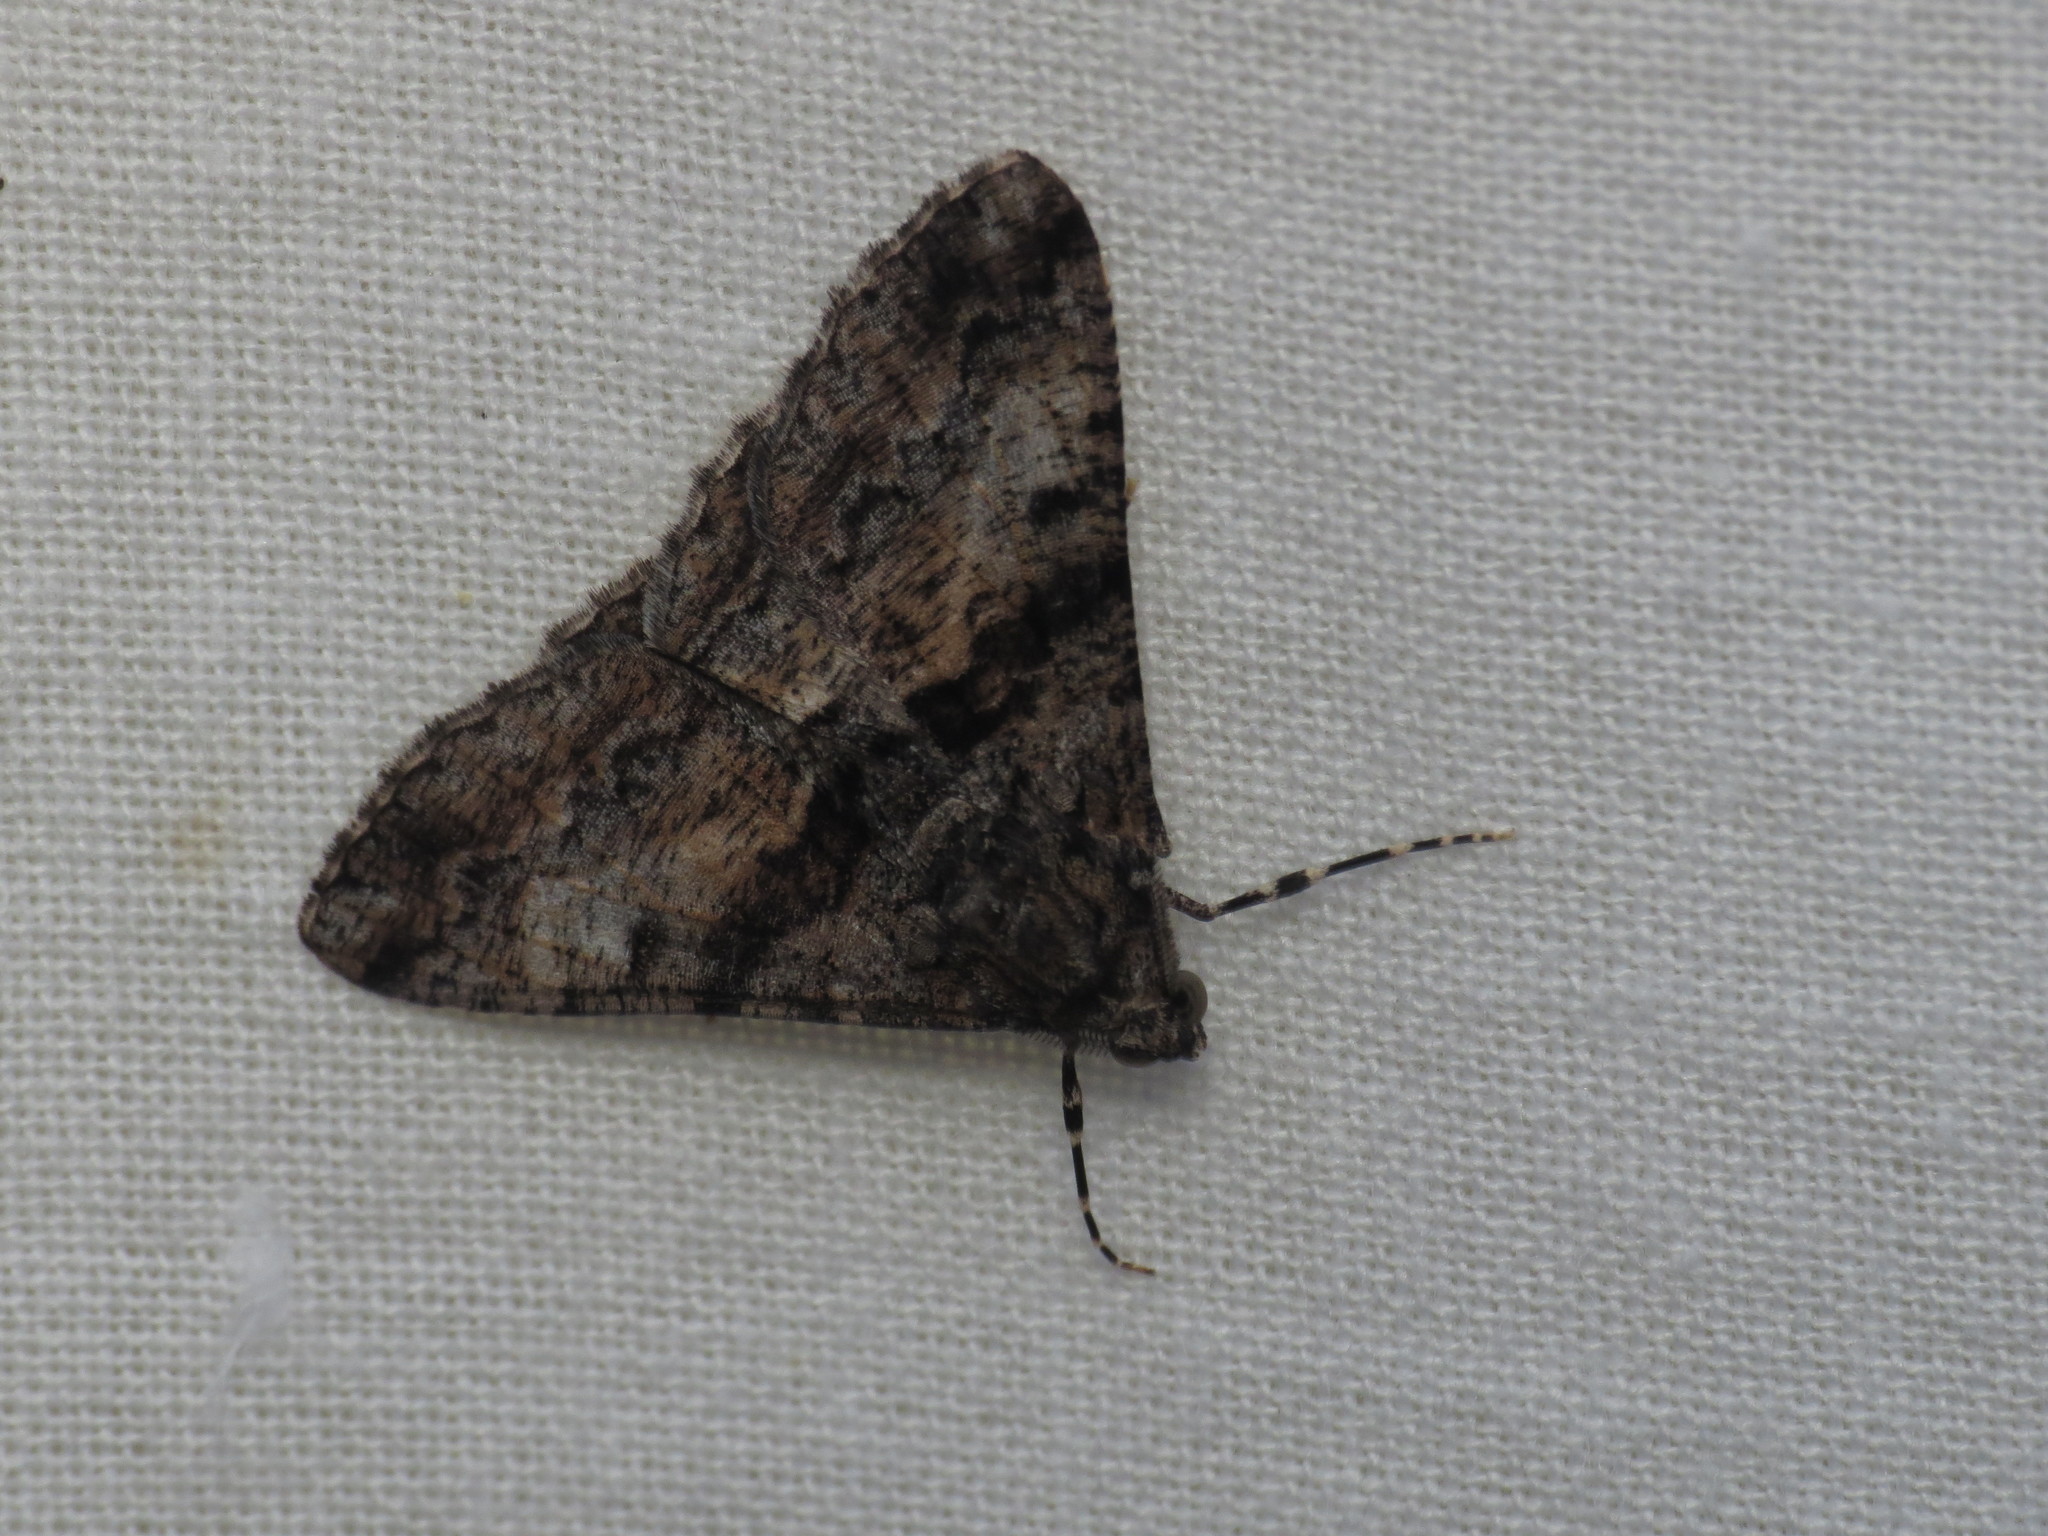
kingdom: Animalia
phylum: Arthropoda
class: Insecta
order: Lepidoptera
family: Geometridae
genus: Gastrinodes
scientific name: Gastrinodes argoplaca
